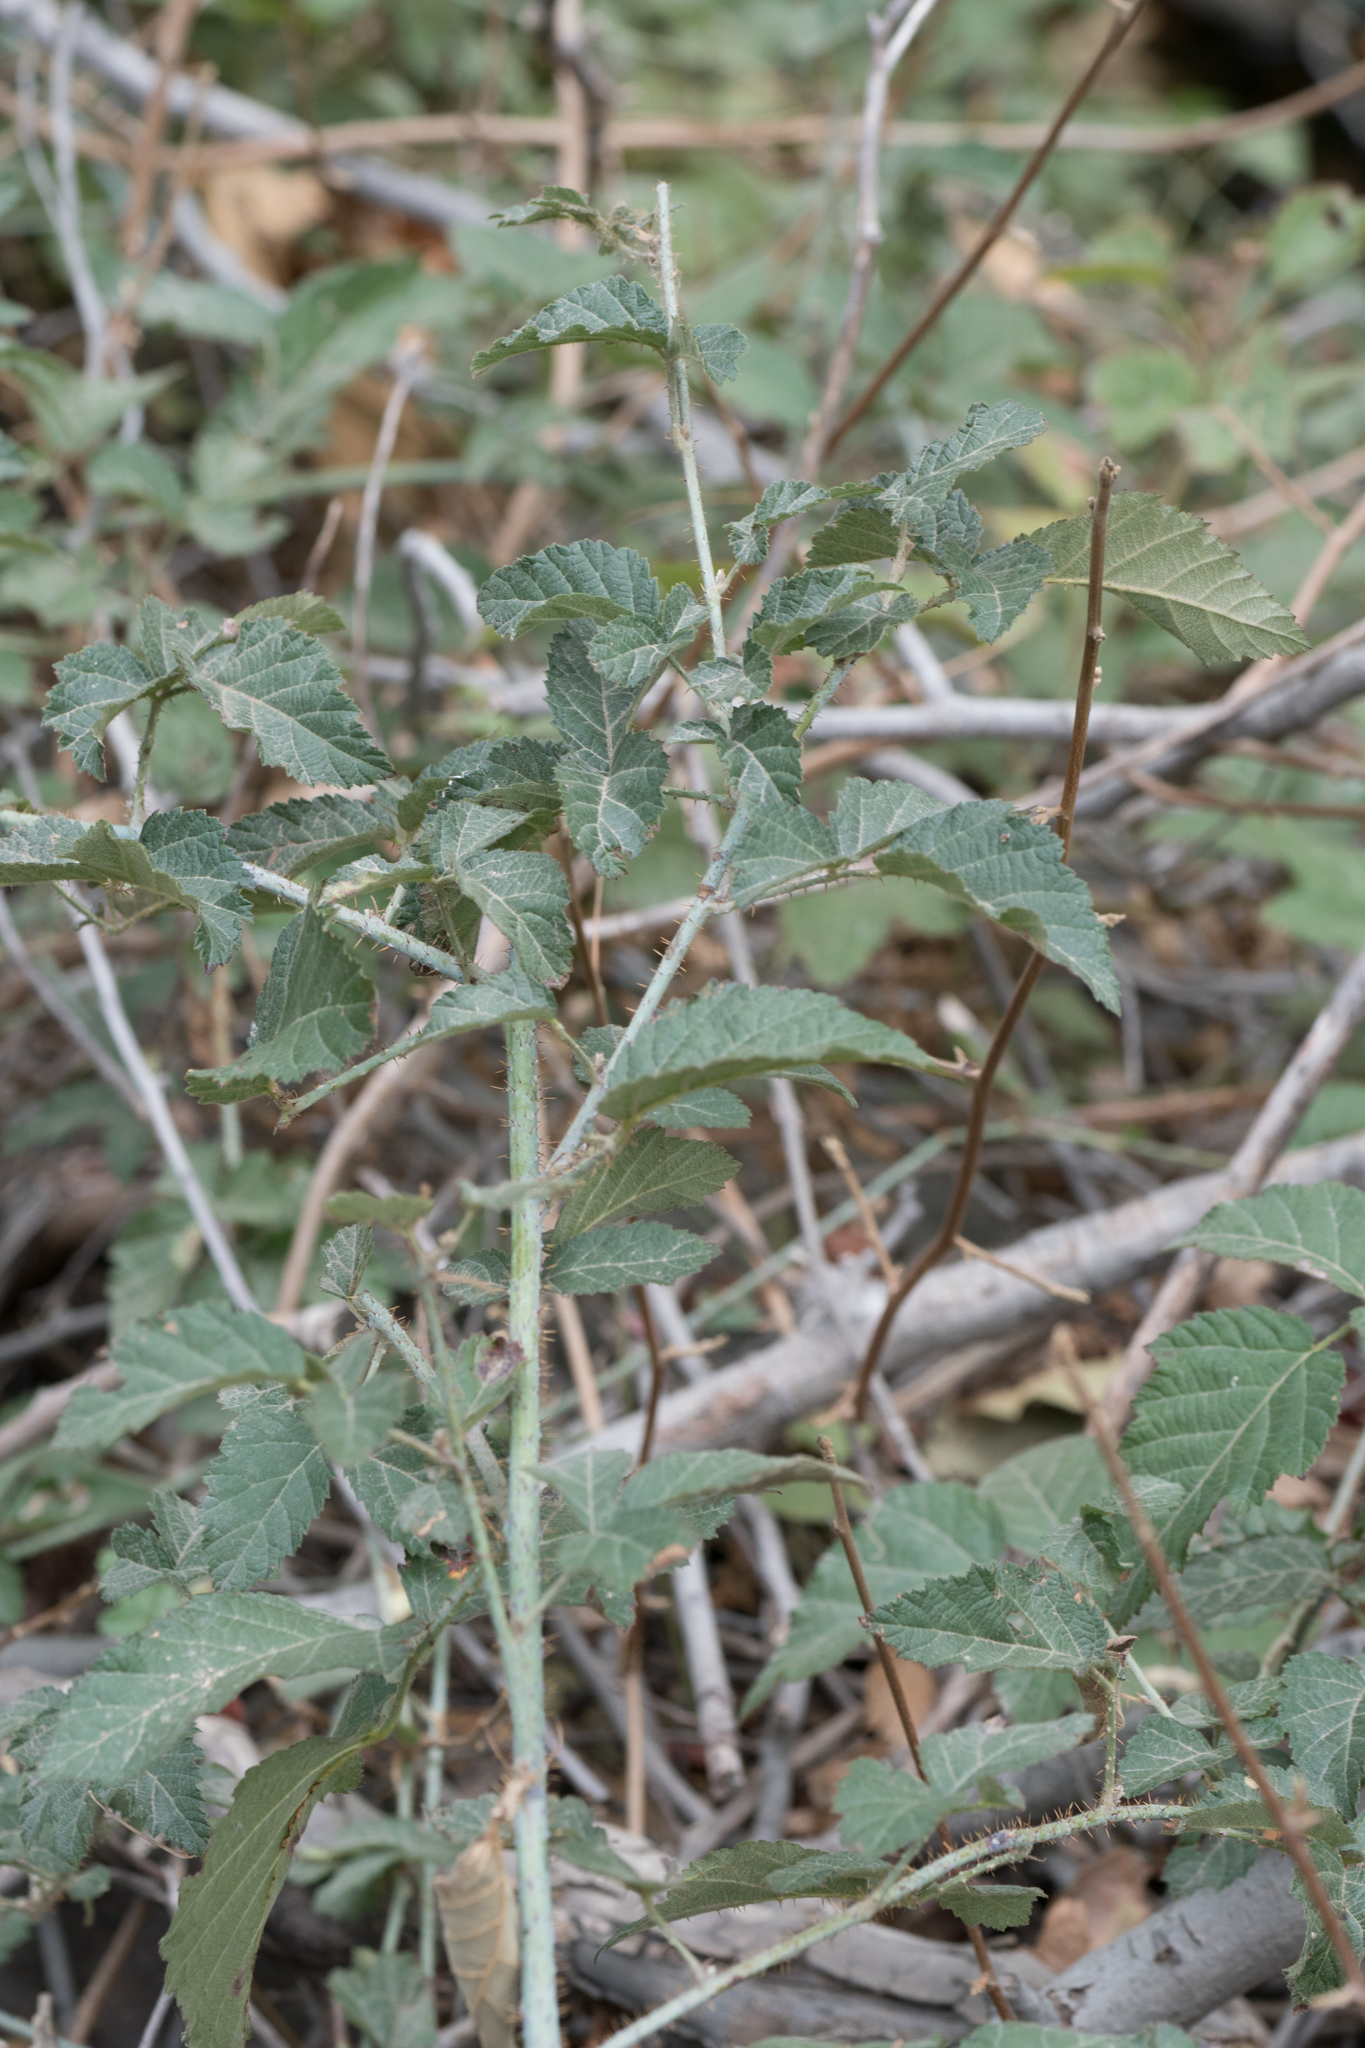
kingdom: Plantae
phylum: Tracheophyta
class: Magnoliopsida
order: Rosales
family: Rosaceae
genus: Rubus
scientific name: Rubus ursinus
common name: Pacific blackberry
